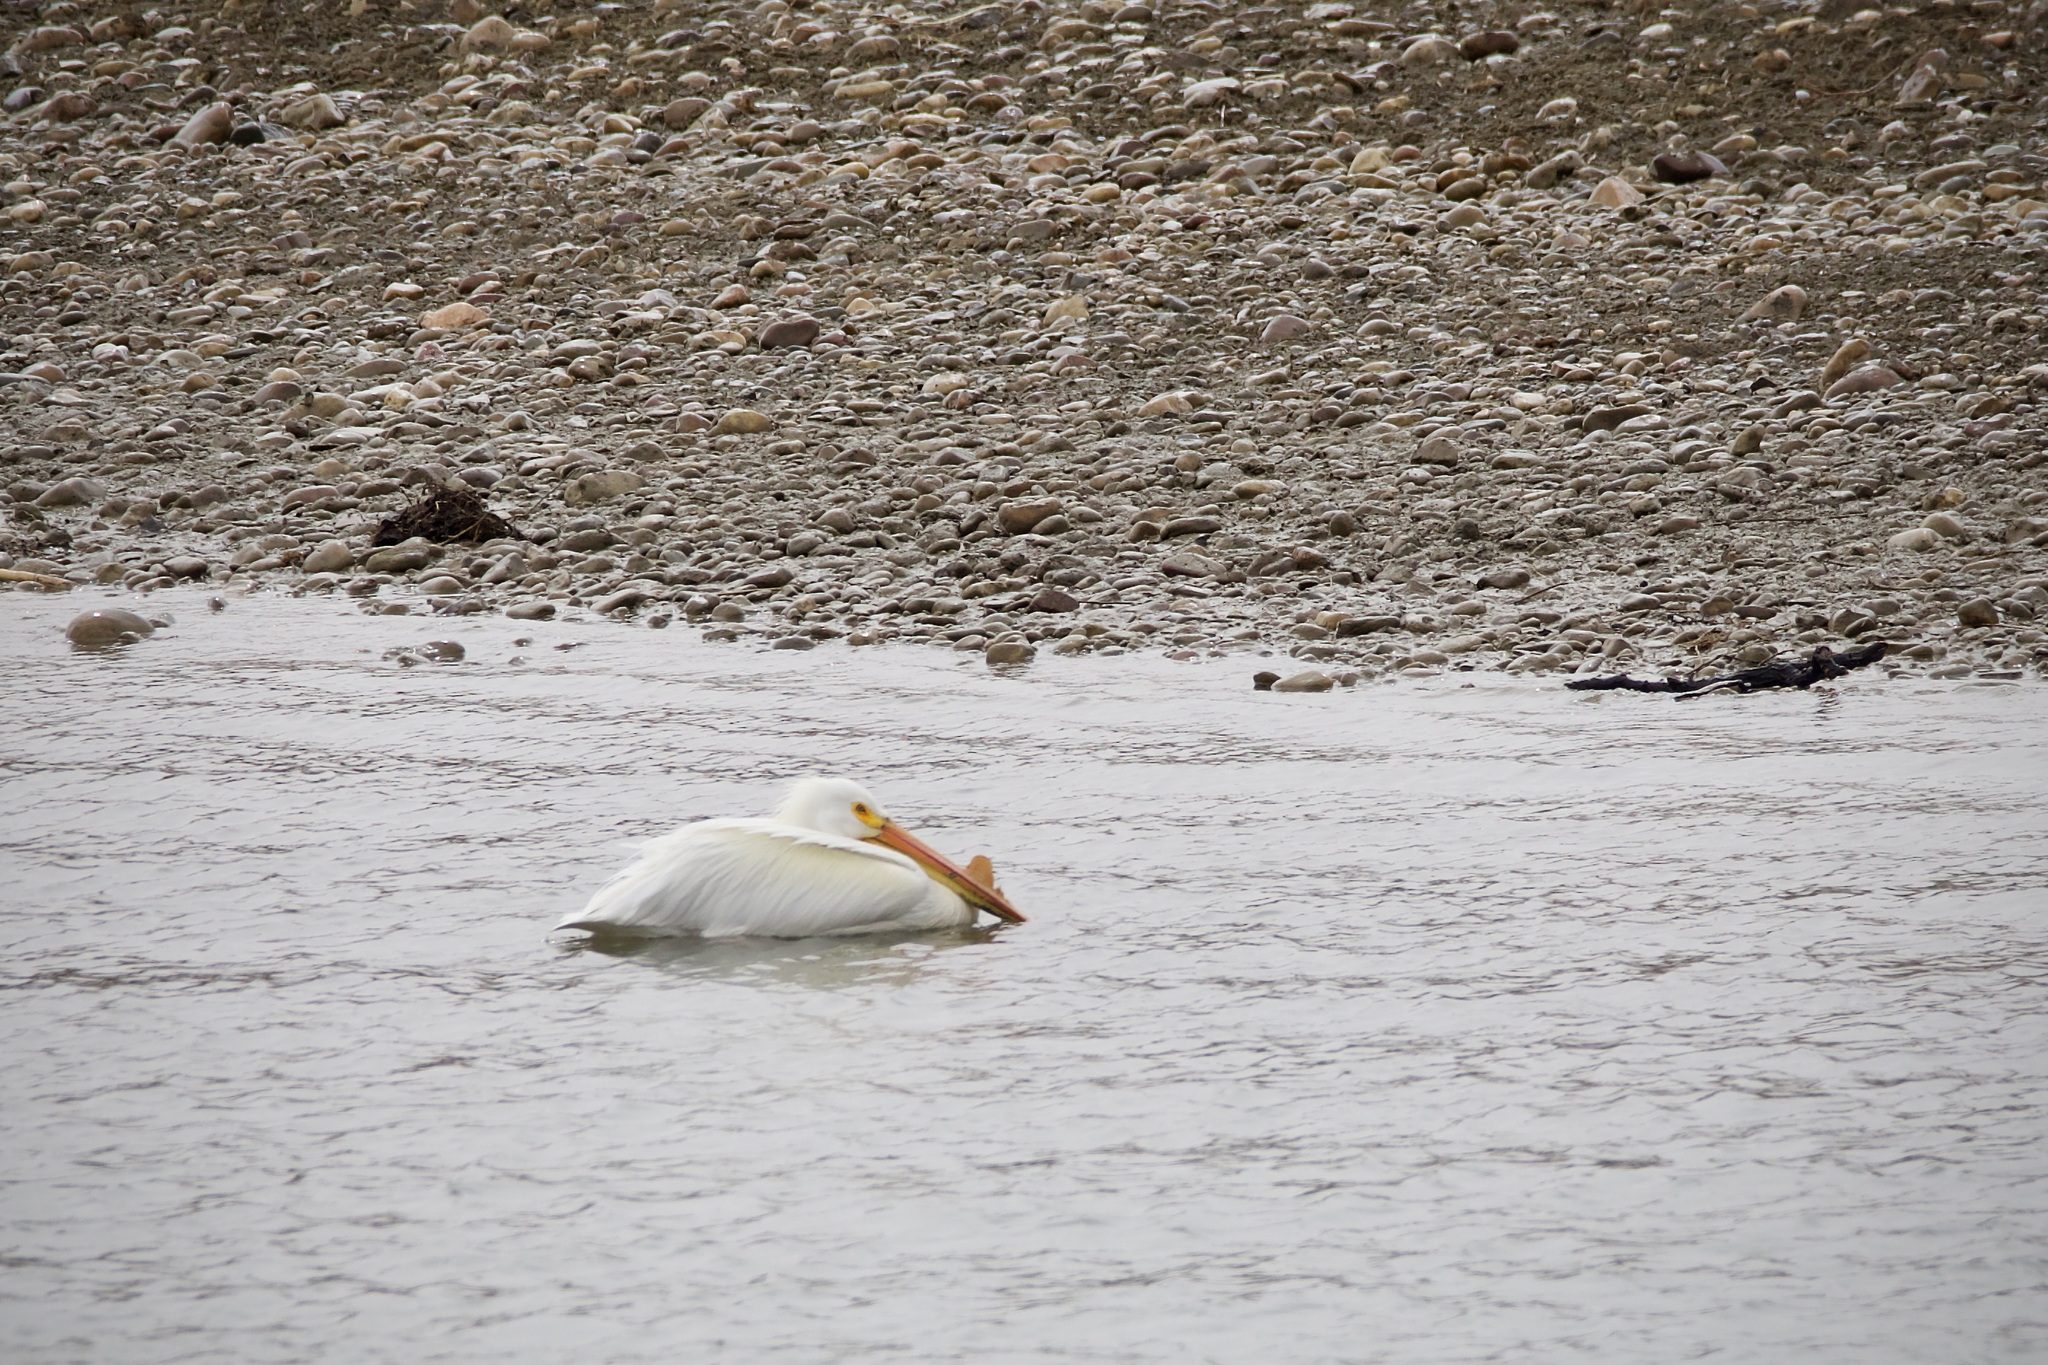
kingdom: Animalia
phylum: Chordata
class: Aves
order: Pelecaniformes
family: Pelecanidae
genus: Pelecanus
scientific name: Pelecanus erythrorhynchos
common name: American white pelican
